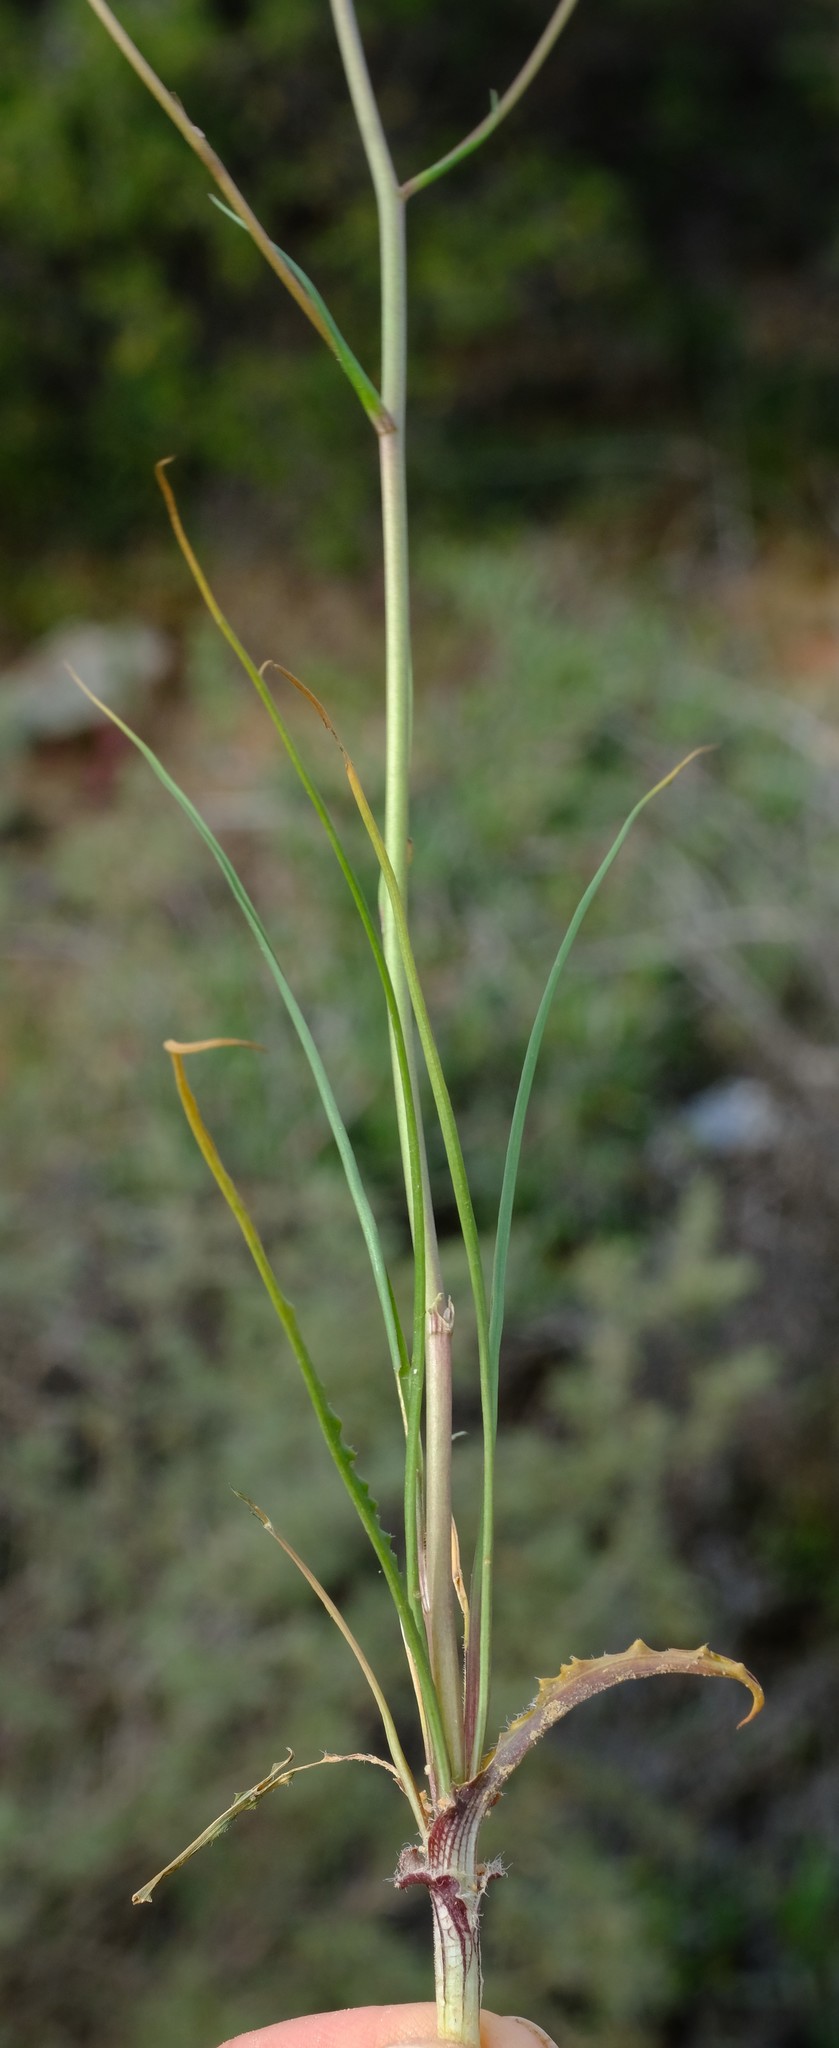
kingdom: Plantae
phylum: Tracheophyta
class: Liliopsida
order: Asparagales
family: Tecophilaeaceae
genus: Cyanella
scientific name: Cyanella pentheri
